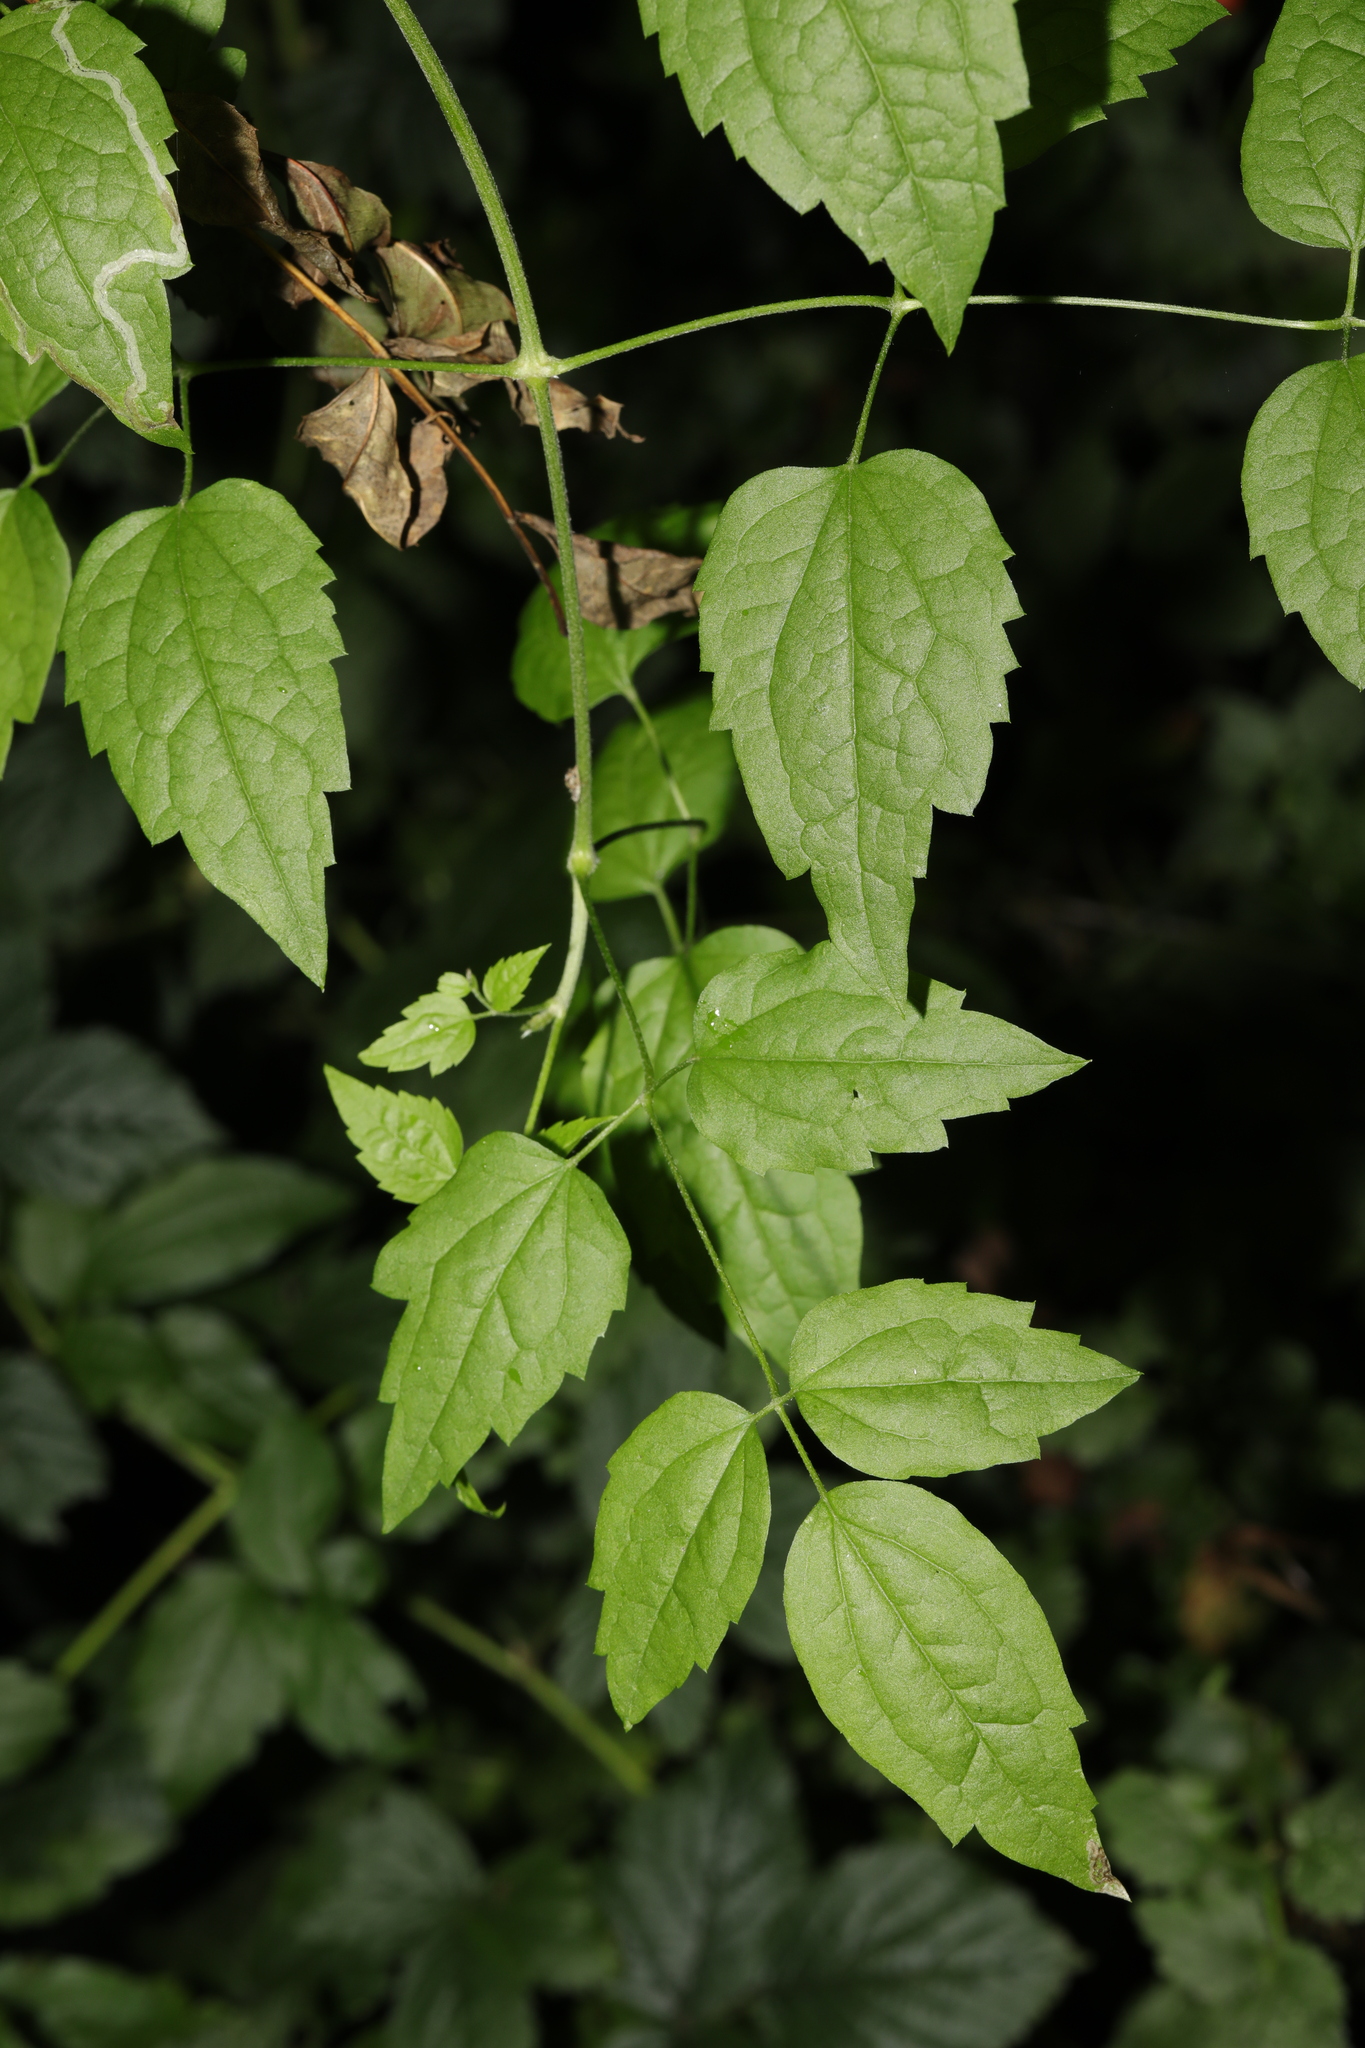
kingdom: Plantae
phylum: Tracheophyta
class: Magnoliopsida
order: Ranunculales
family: Ranunculaceae
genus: Clematis
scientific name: Clematis vitalba
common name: Evergreen clematis
